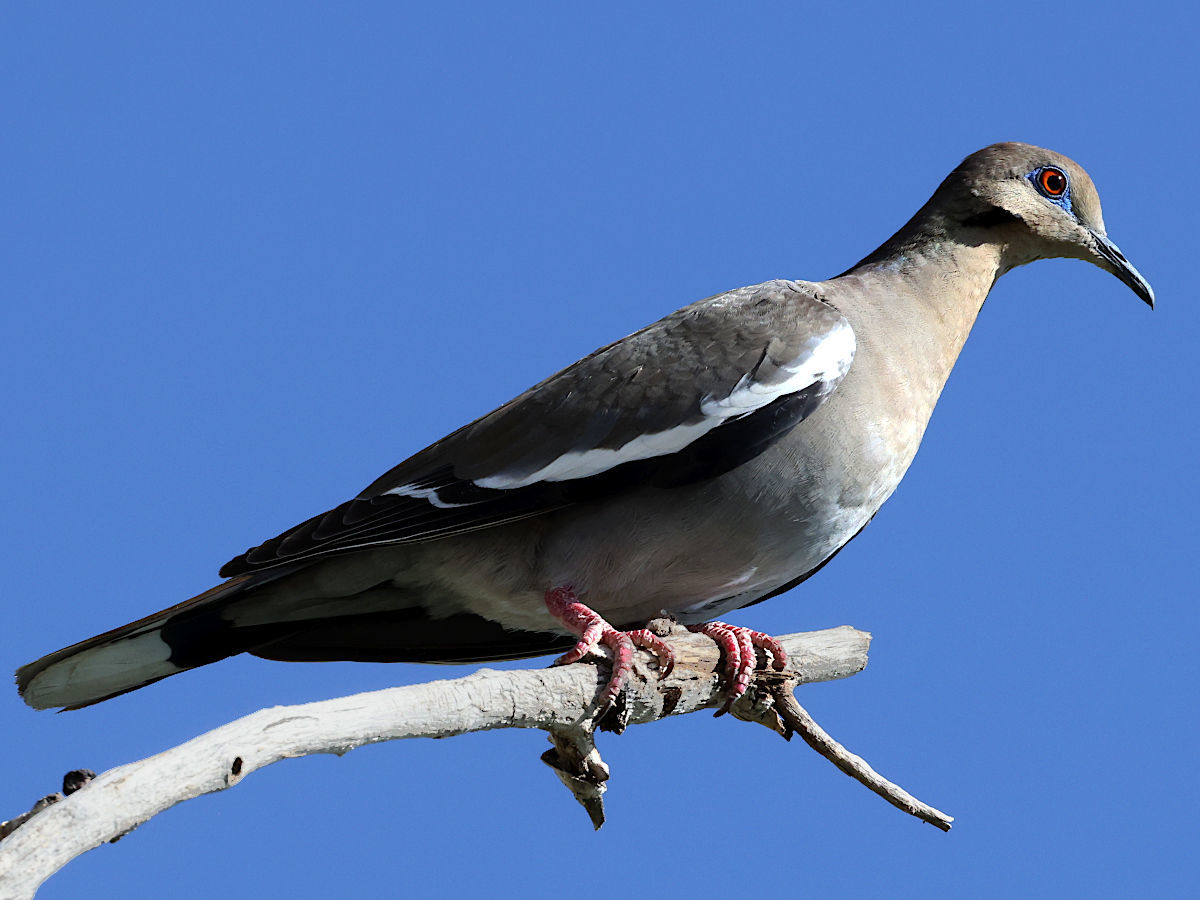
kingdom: Animalia
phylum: Chordata
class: Aves
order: Columbiformes
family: Columbidae
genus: Zenaida
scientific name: Zenaida asiatica
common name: White-winged dove
